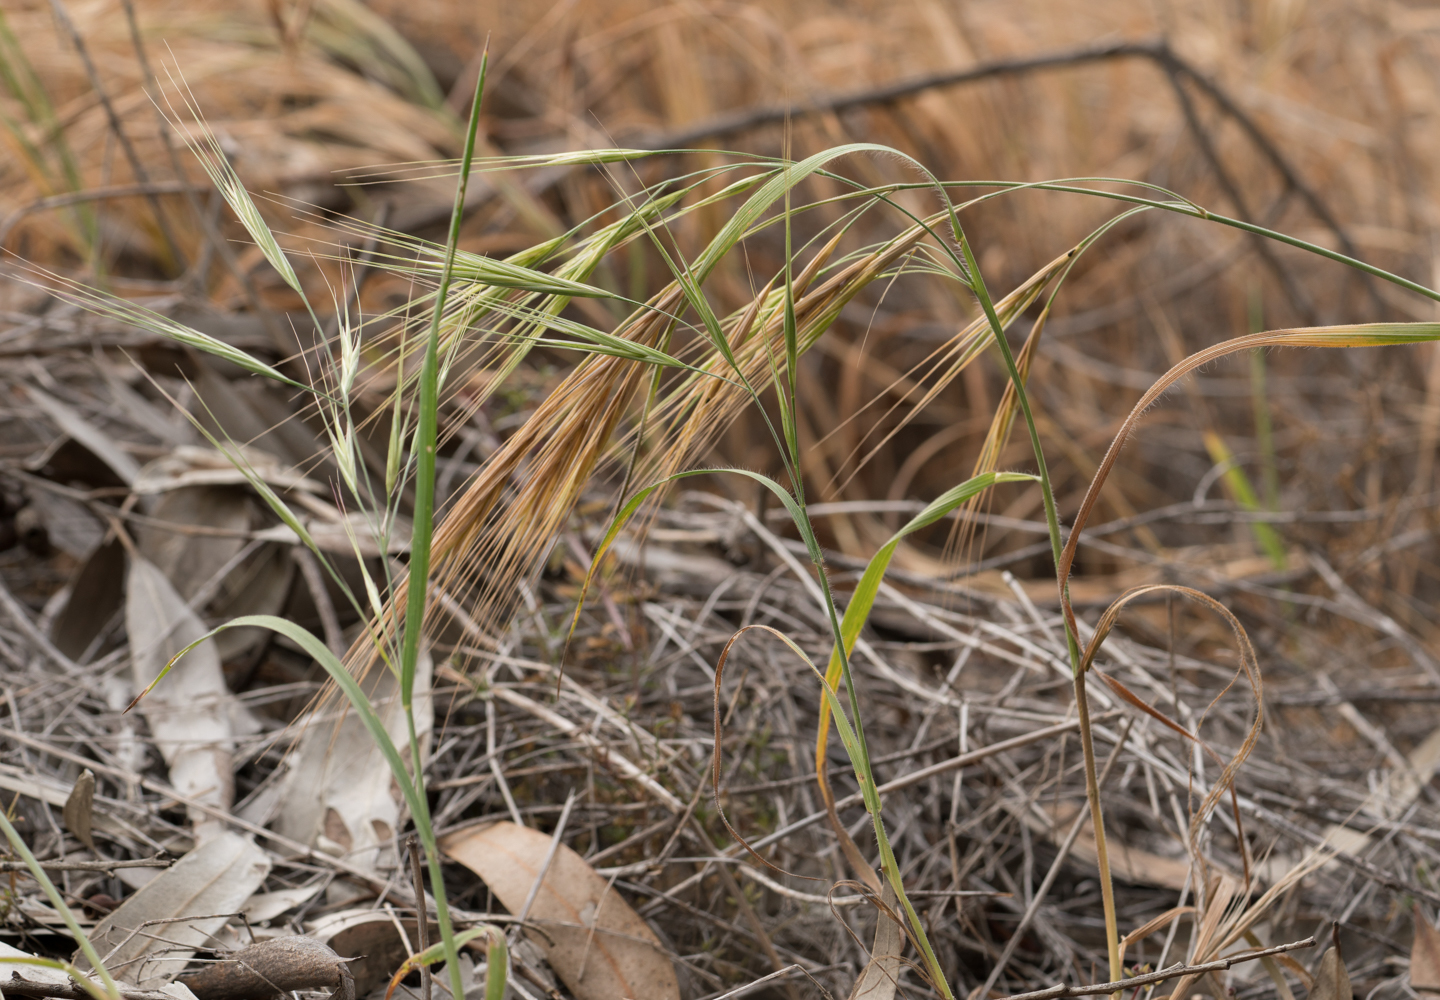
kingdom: Plantae
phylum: Tracheophyta
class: Liliopsida
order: Poales
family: Poaceae
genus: Bromus
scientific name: Bromus diandrus
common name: Ripgut brome
